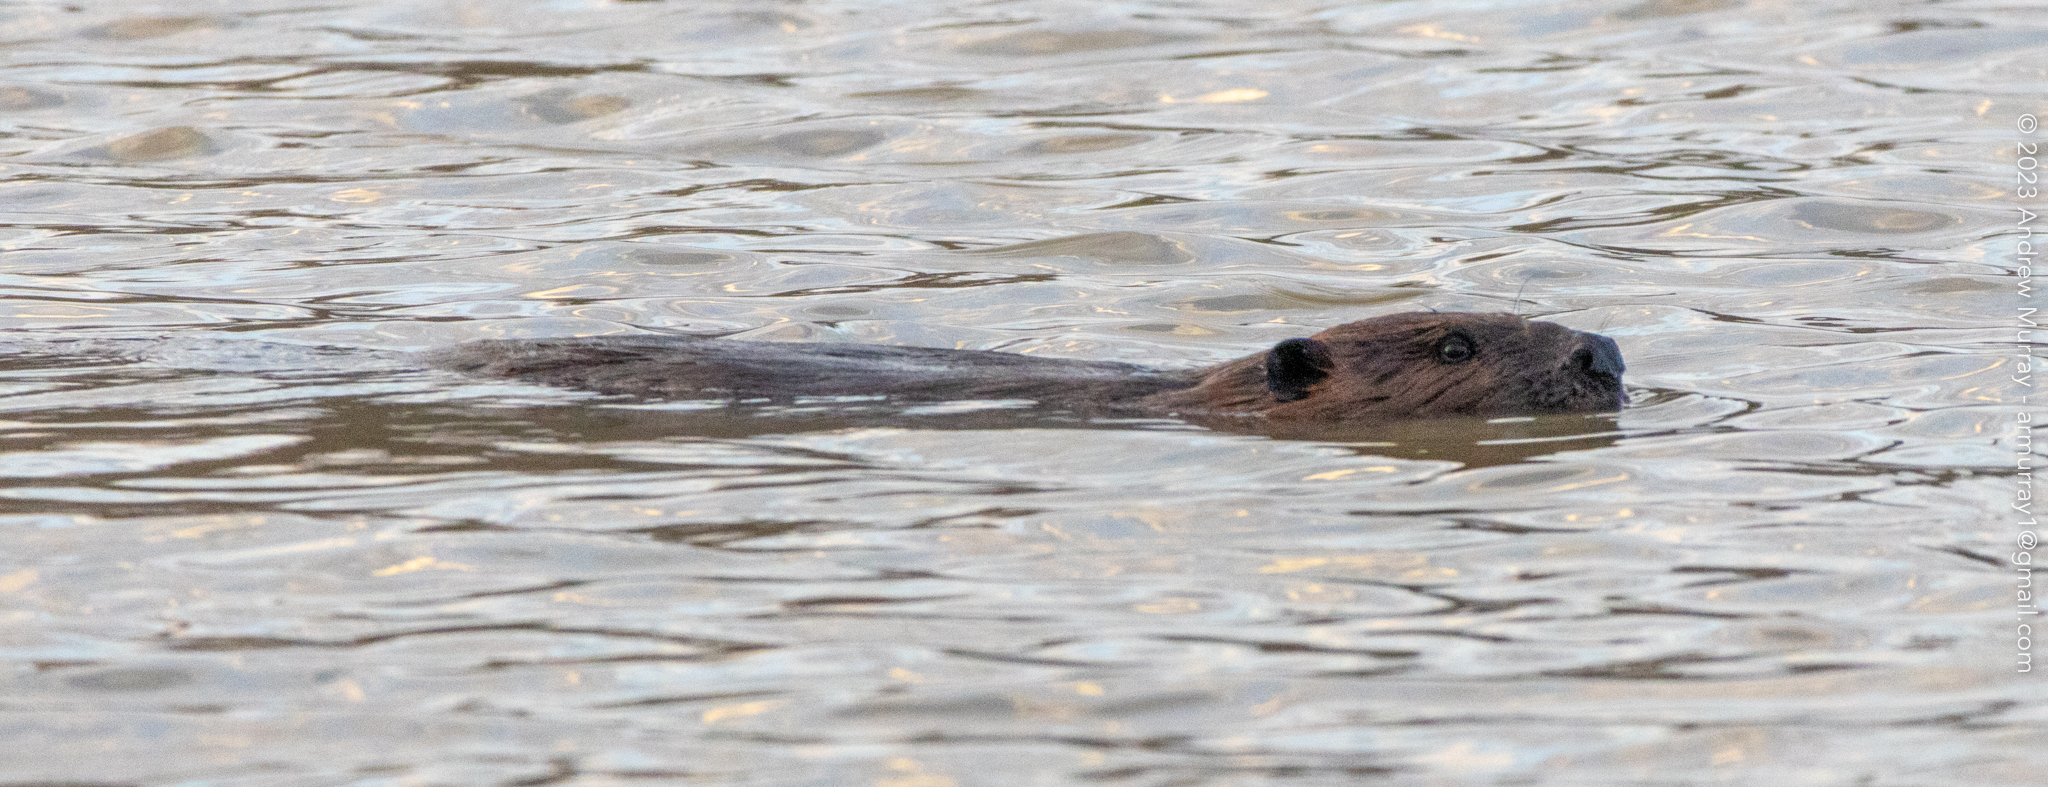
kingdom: Animalia
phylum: Chordata
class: Mammalia
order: Rodentia
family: Castoridae
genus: Castor
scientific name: Castor canadensis
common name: American beaver
